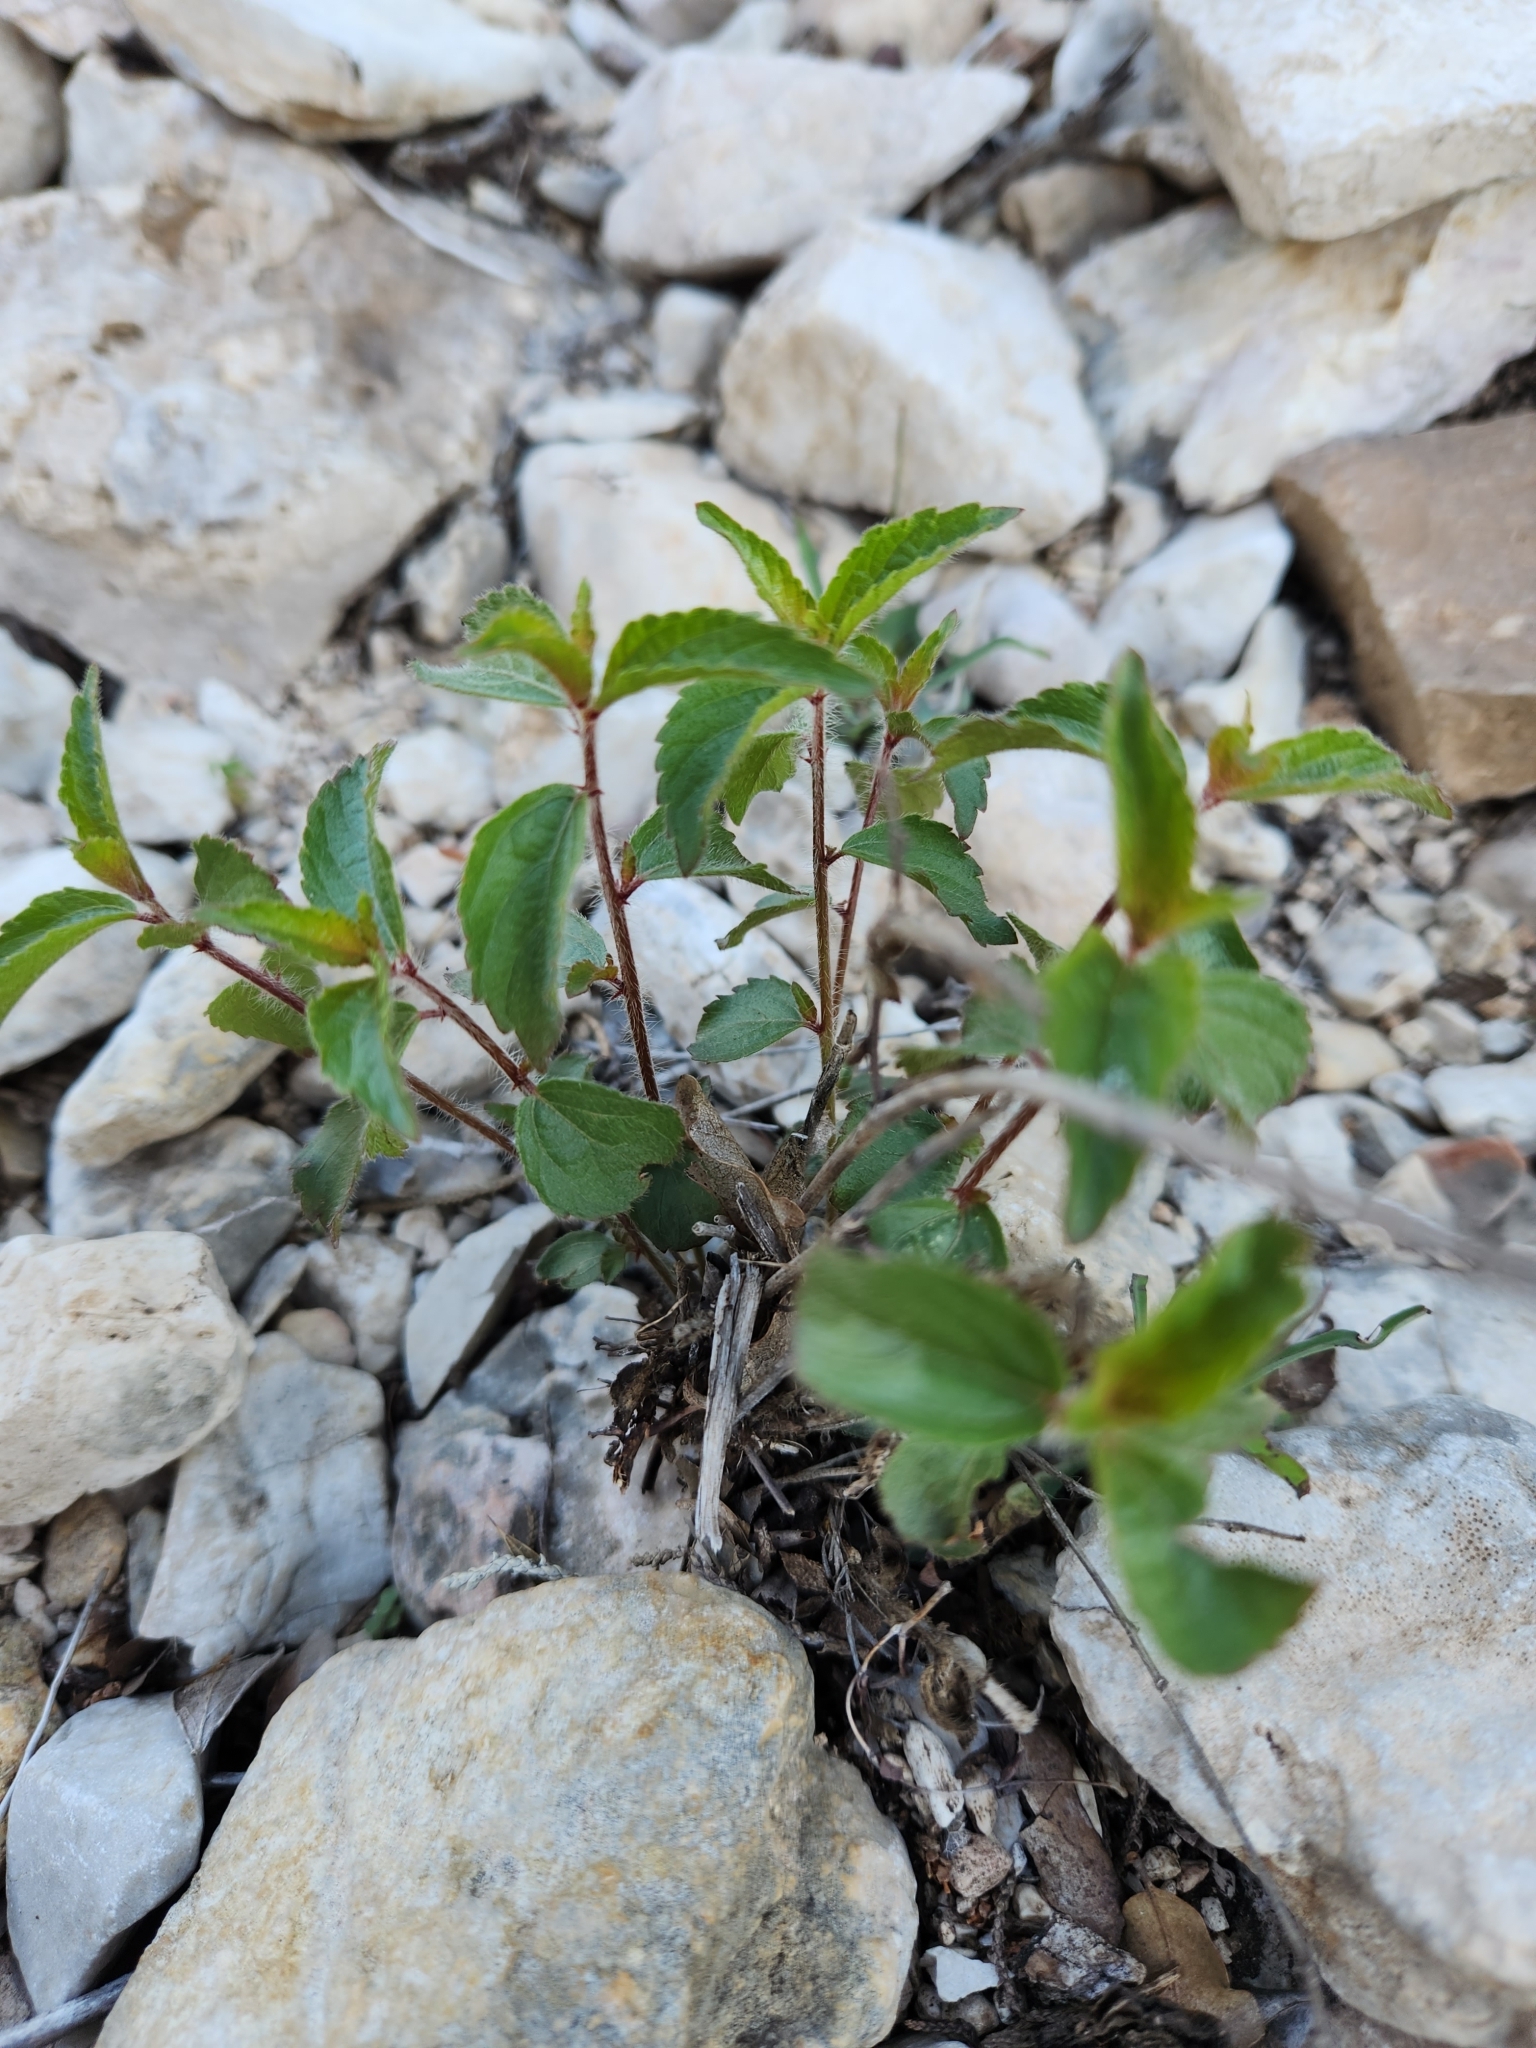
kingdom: Plantae
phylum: Tracheophyta
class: Magnoliopsida
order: Malpighiales
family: Euphorbiaceae
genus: Acalypha
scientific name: Acalypha phleoides
